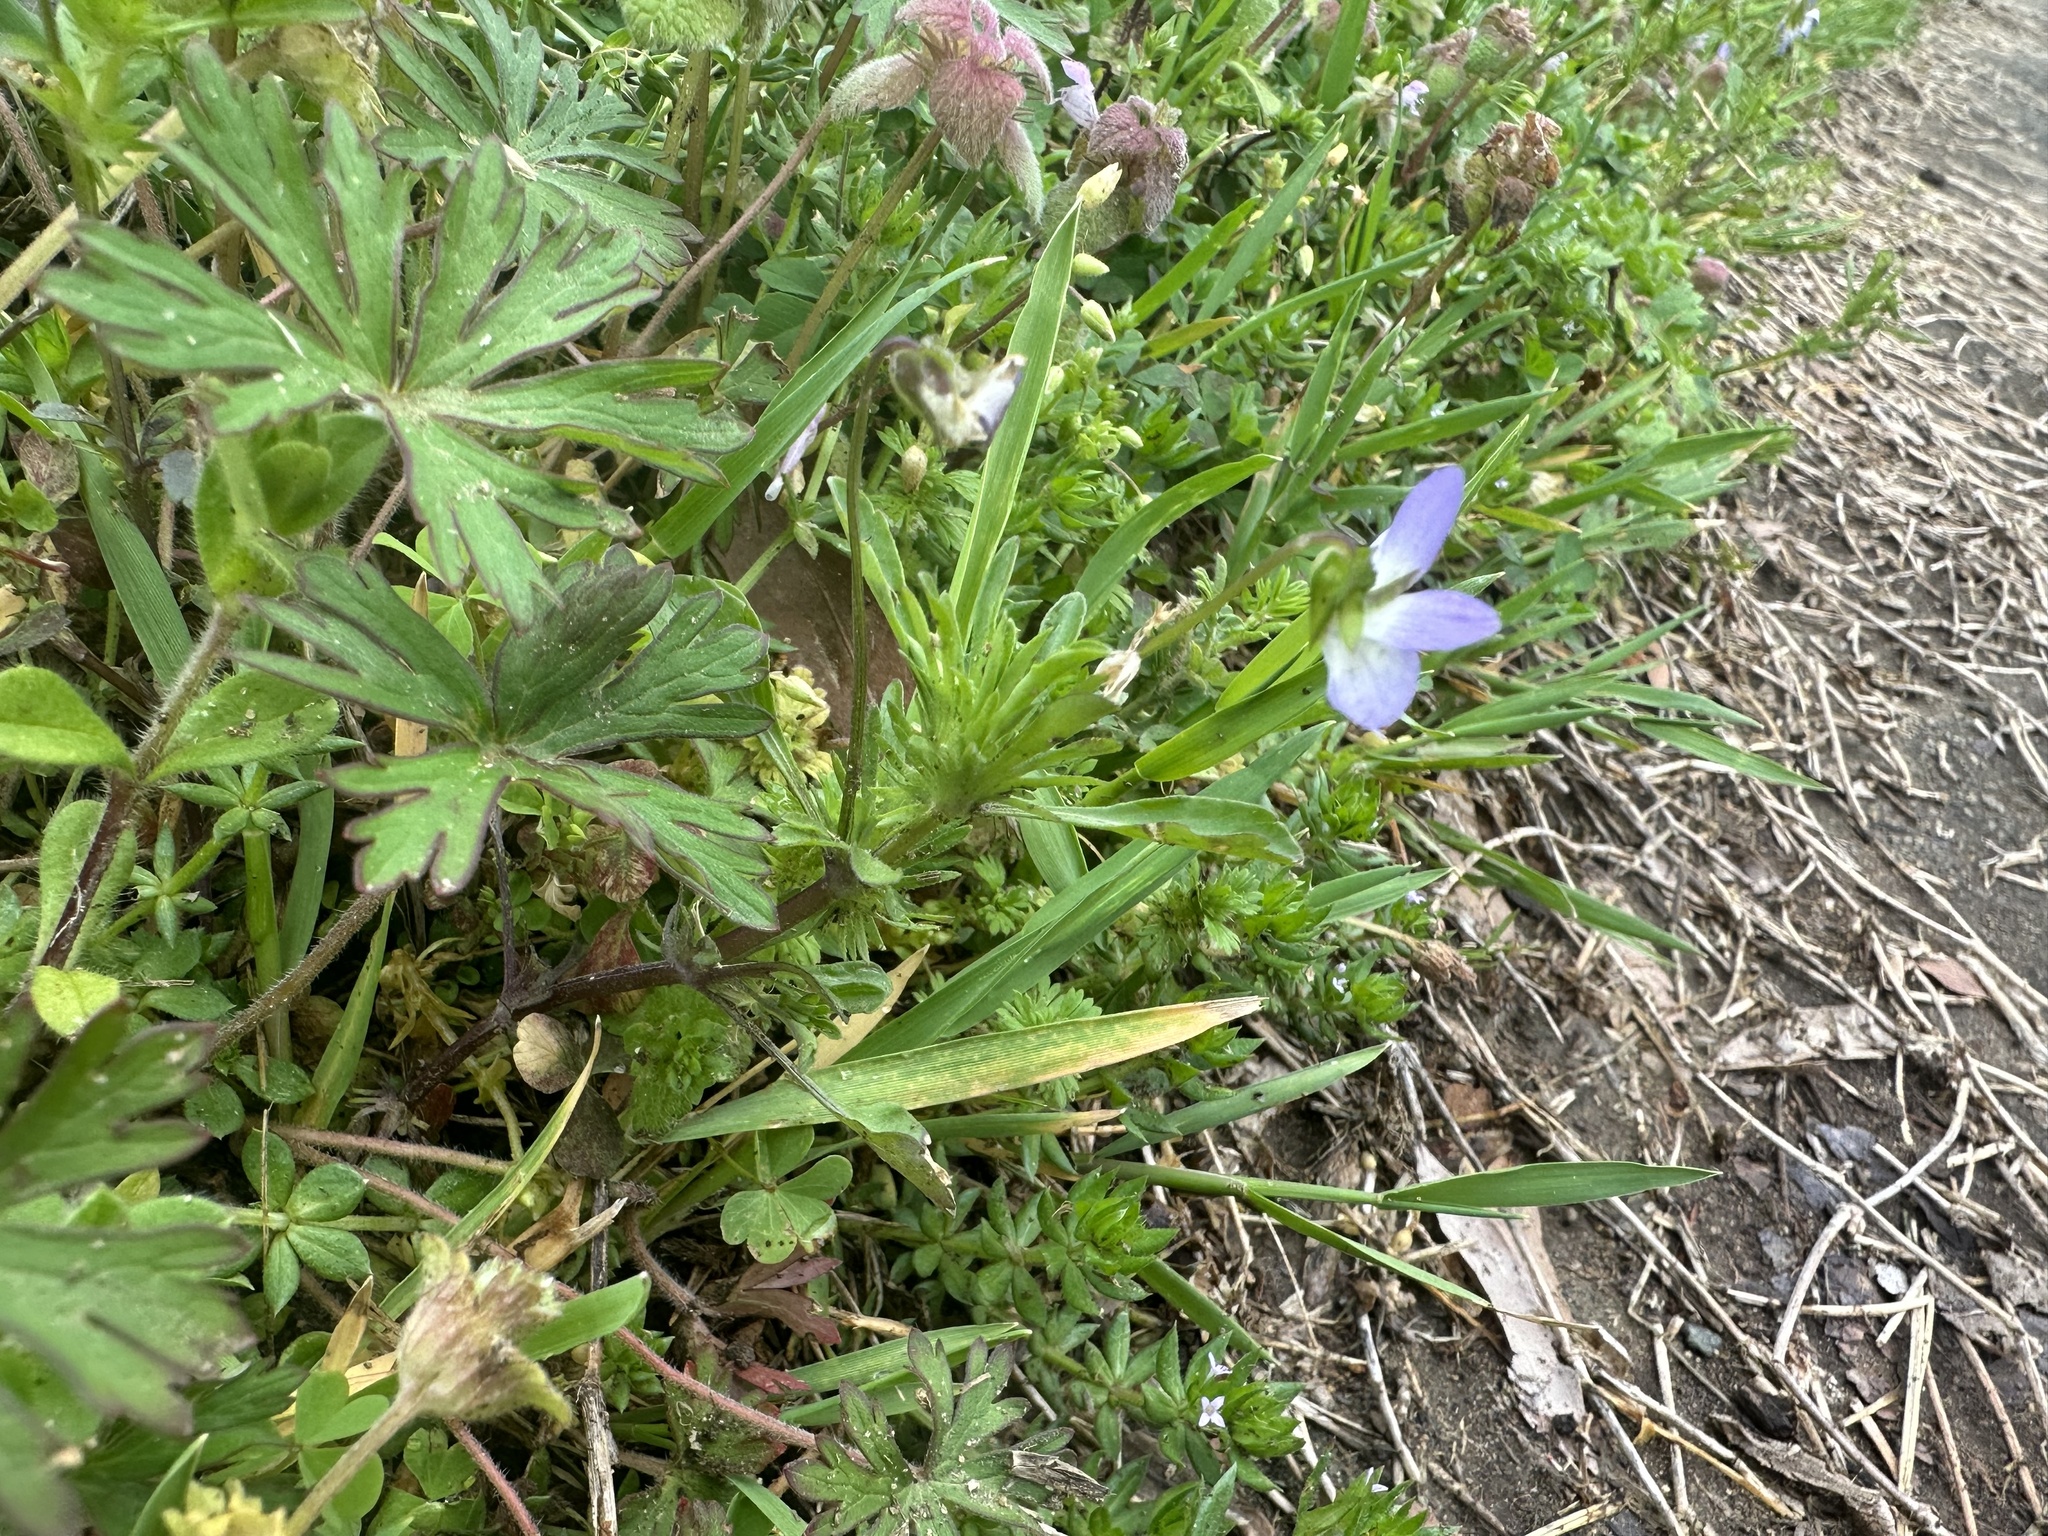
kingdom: Plantae
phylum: Tracheophyta
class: Magnoliopsida
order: Malpighiales
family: Violaceae
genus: Viola
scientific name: Viola rafinesquei
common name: American field pansy
